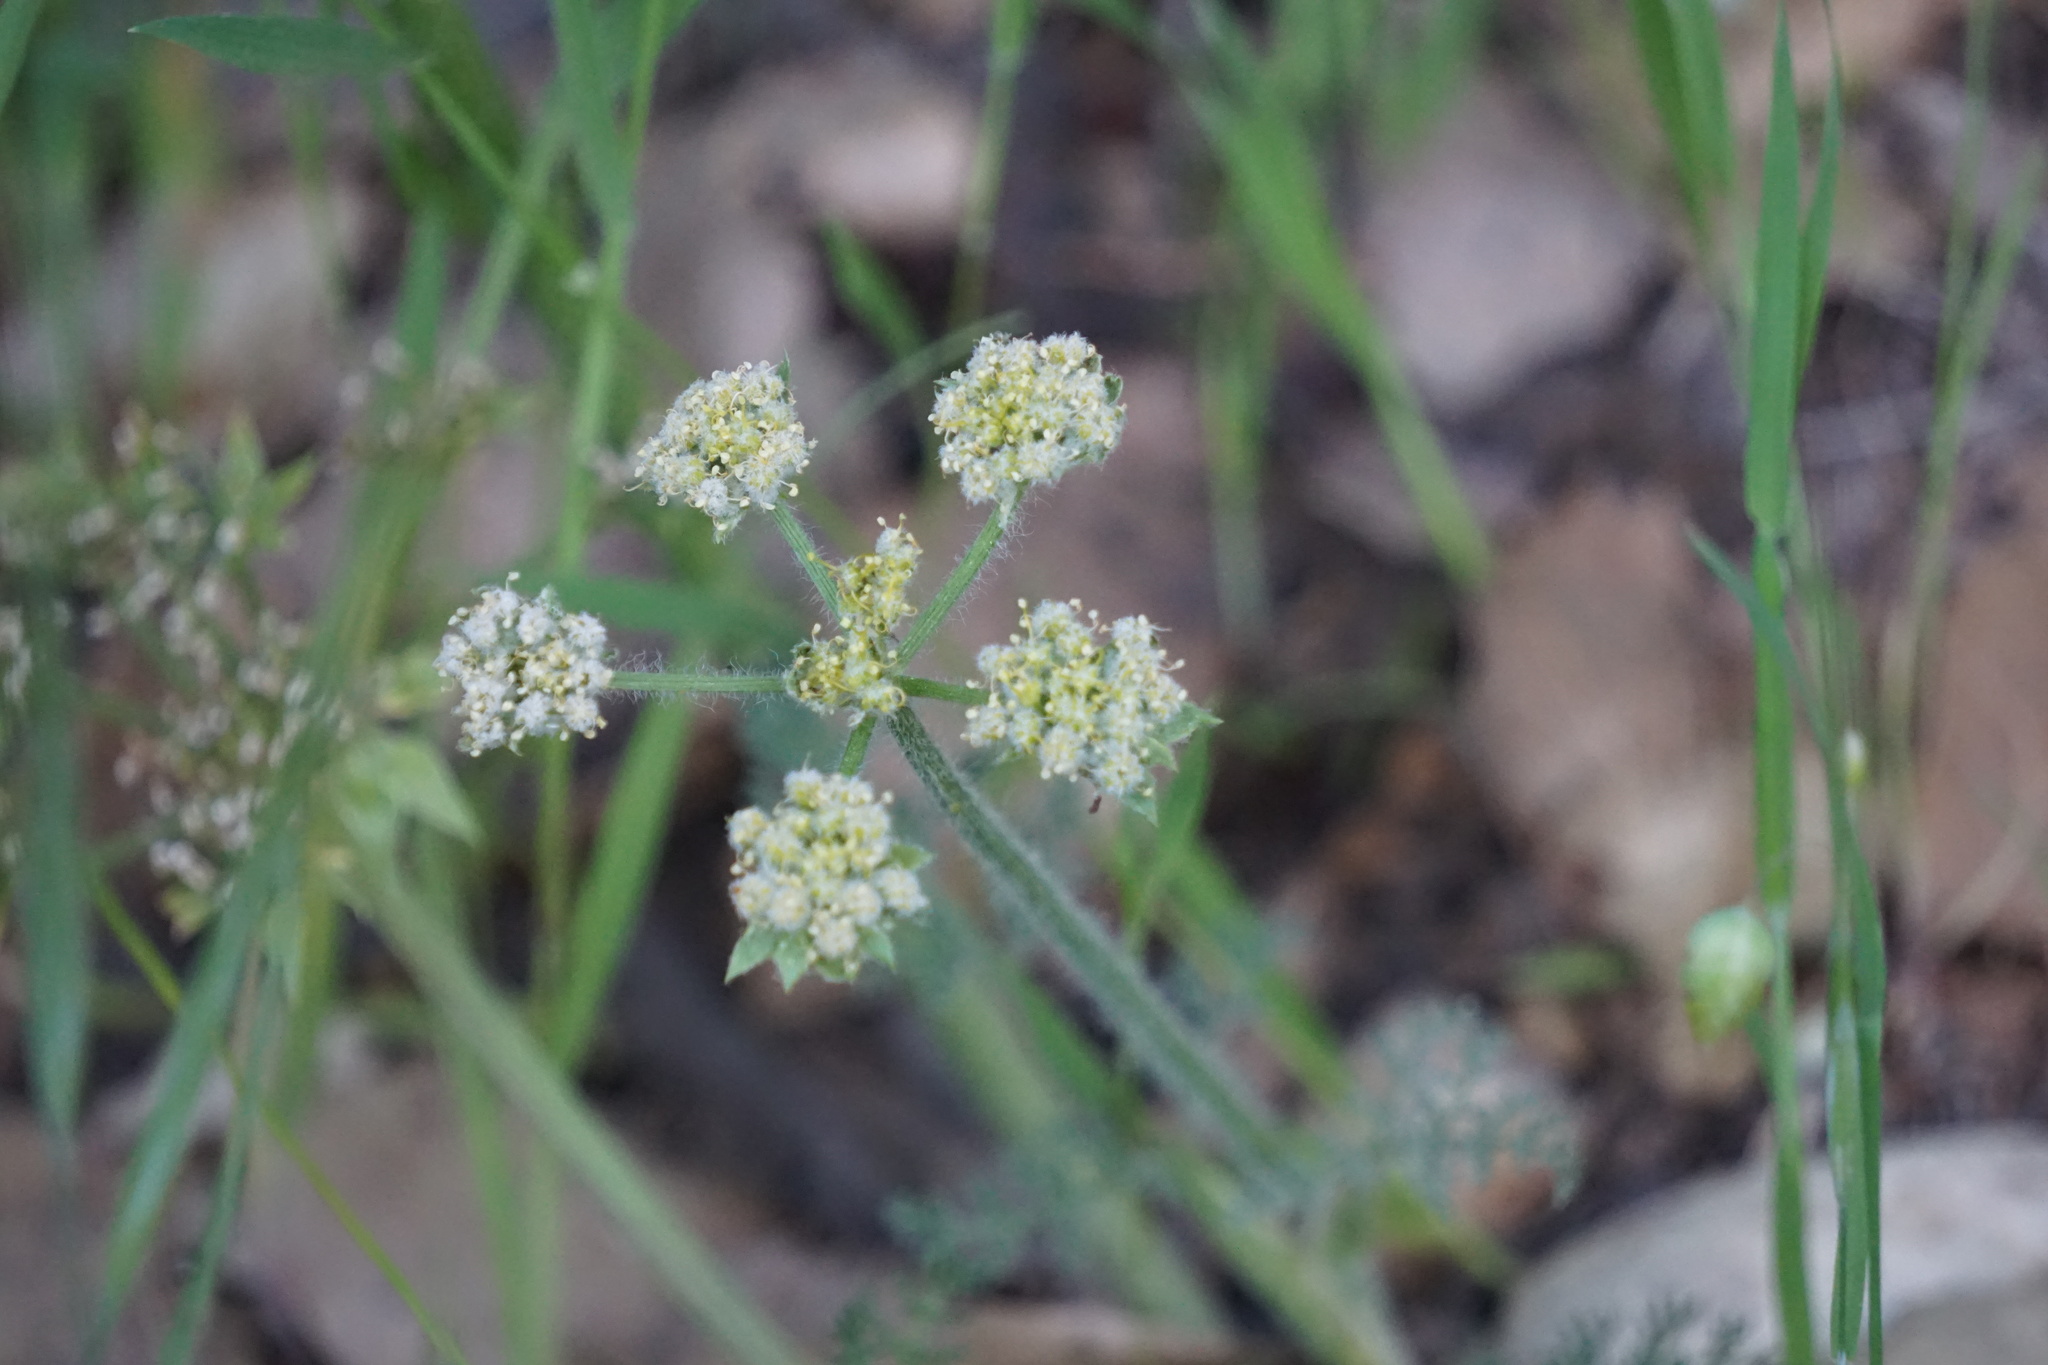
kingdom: Plantae
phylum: Tracheophyta
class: Magnoliopsida
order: Apiales
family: Apiaceae
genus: Lomatium
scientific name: Lomatium dasycarpum
